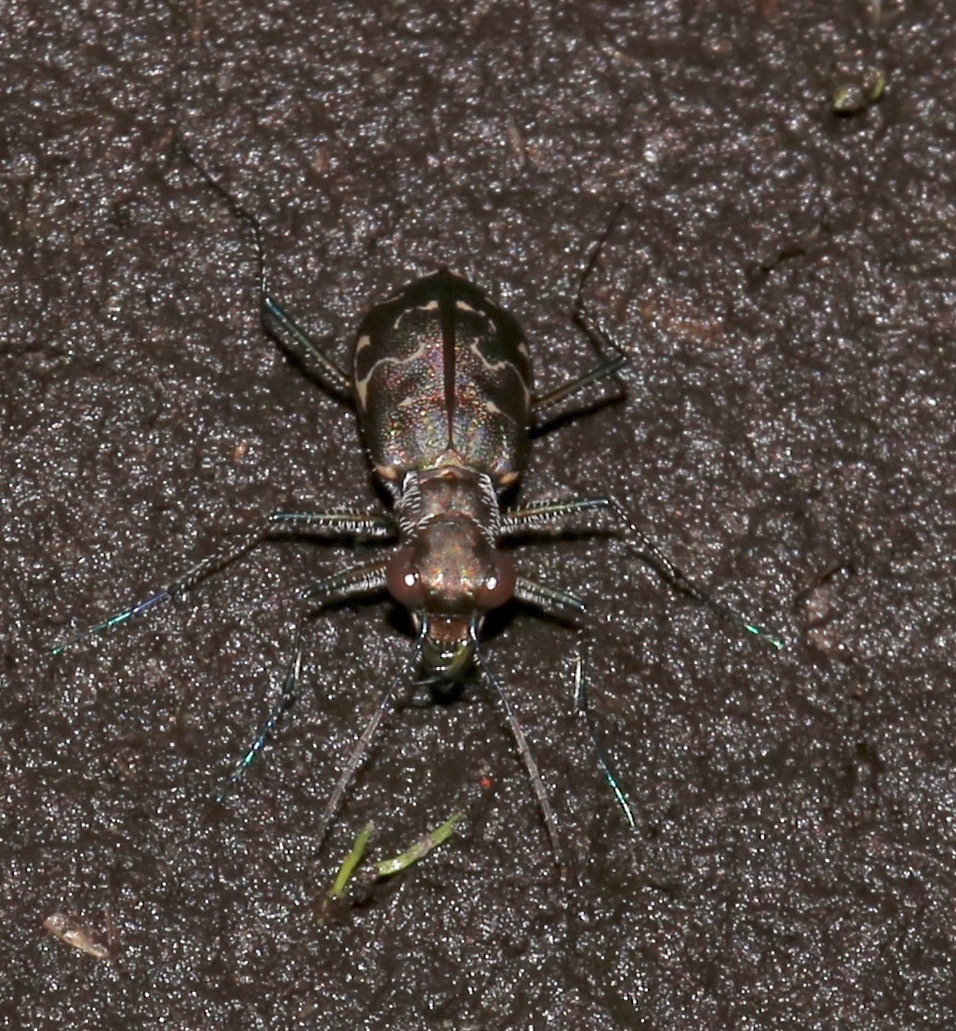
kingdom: Animalia
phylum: Arthropoda
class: Insecta
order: Coleoptera
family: Carabidae
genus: Cicindela
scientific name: Cicindela trifasciata
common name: Mudflat tiger beetle
